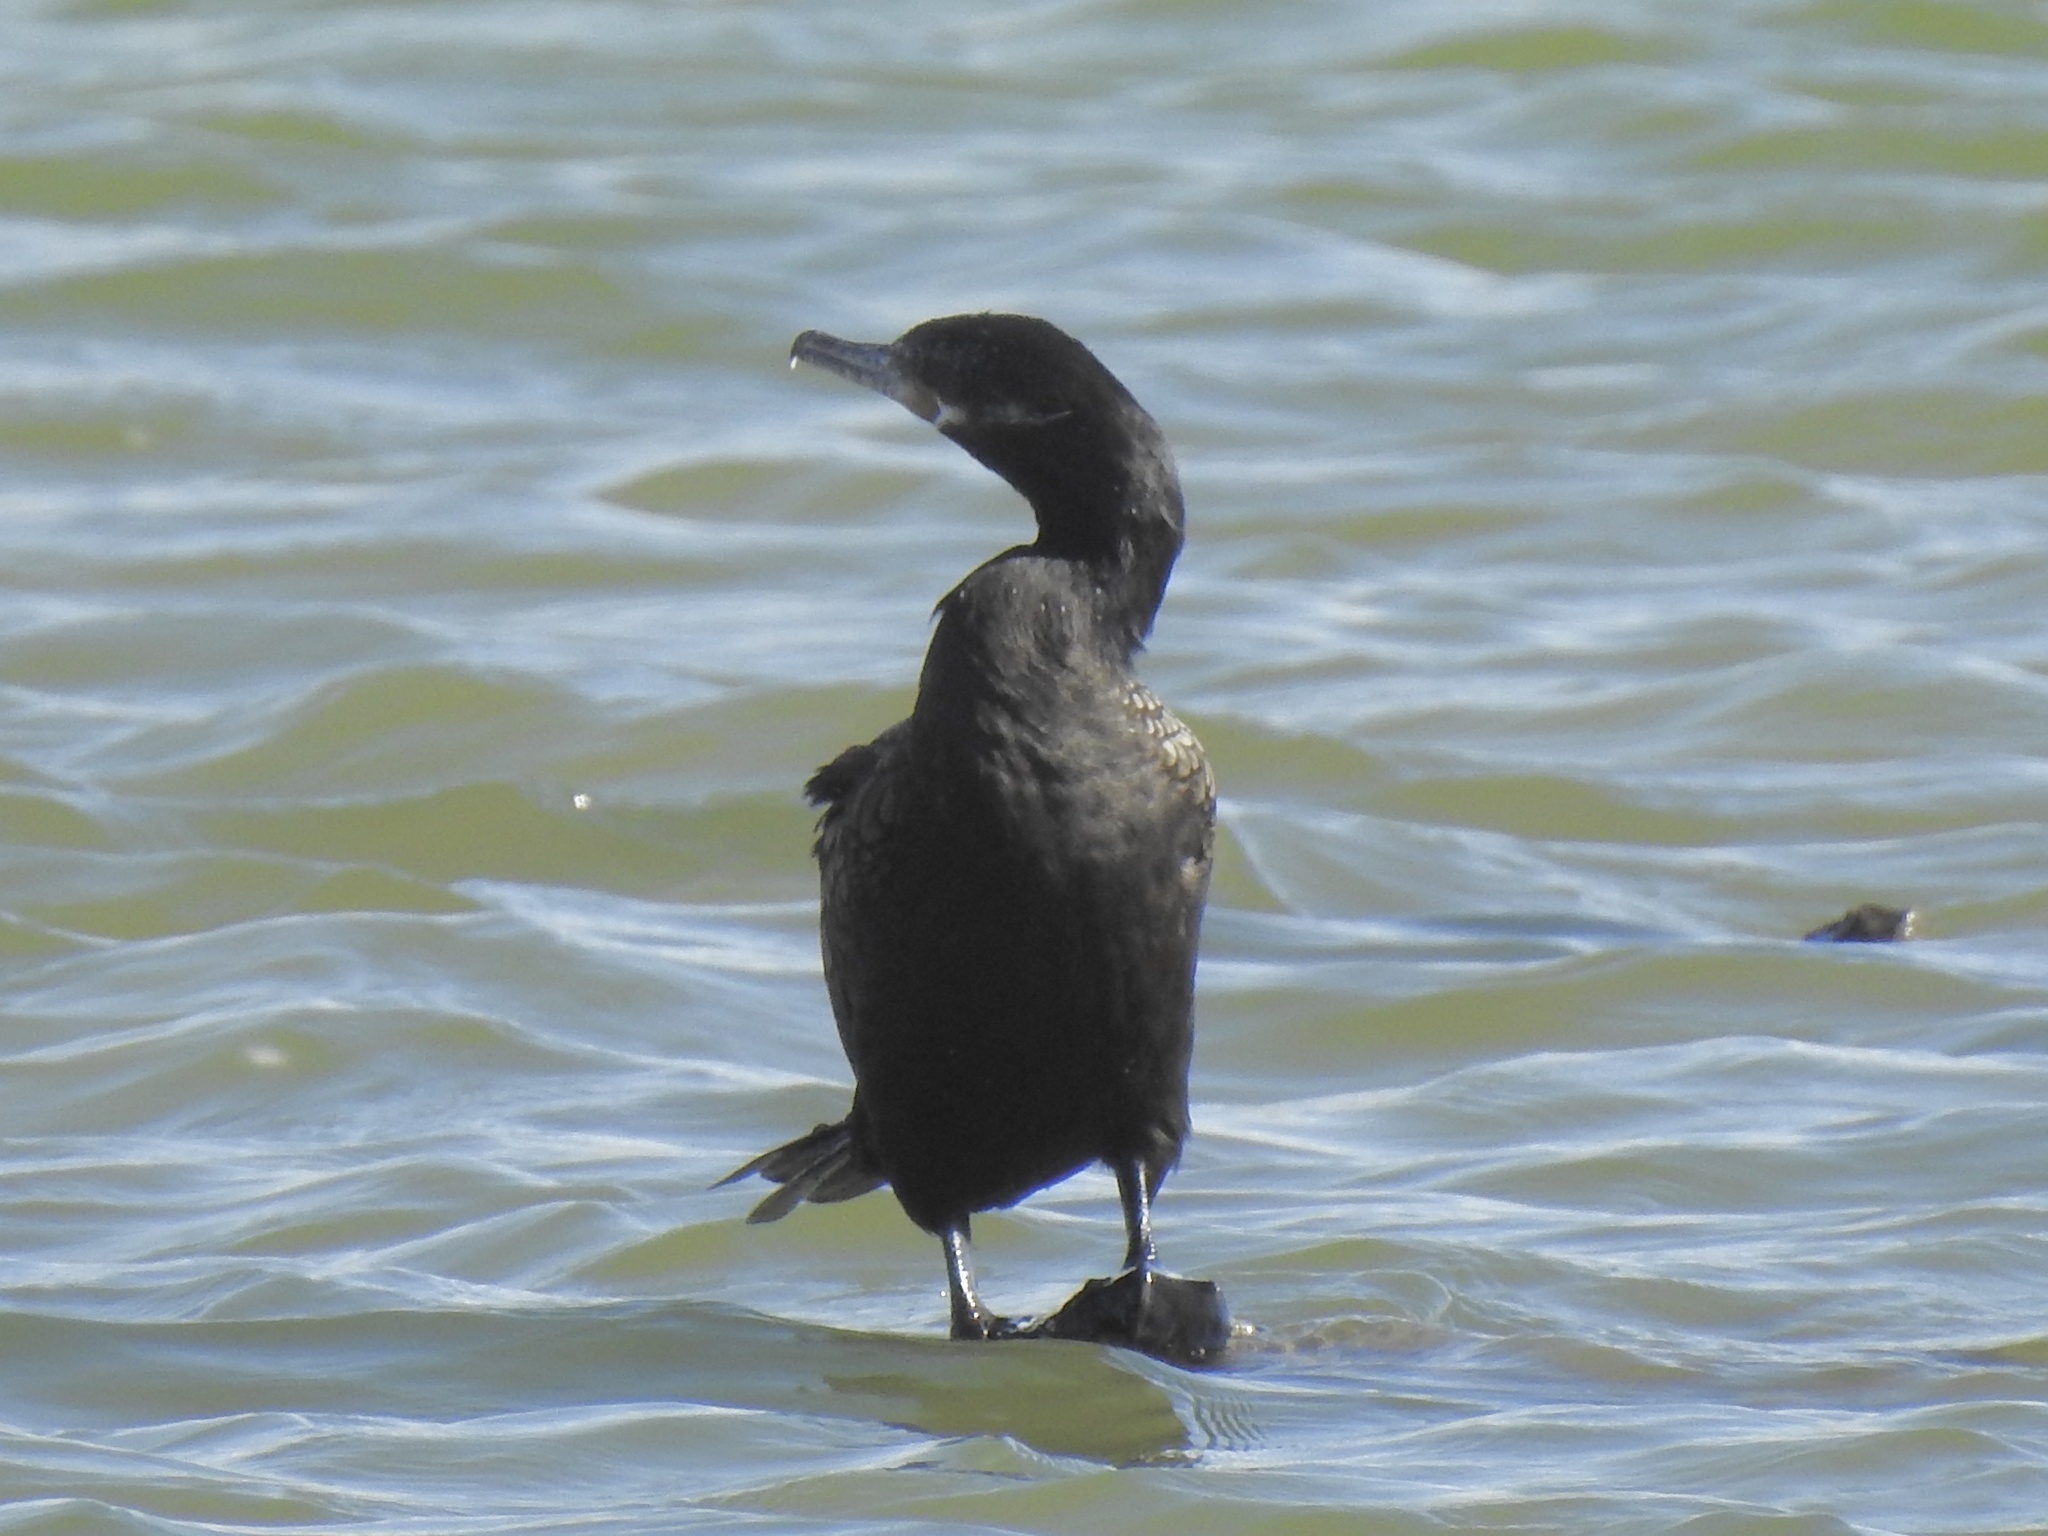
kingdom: Animalia
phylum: Chordata
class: Aves
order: Suliformes
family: Phalacrocoracidae
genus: Phalacrocorax
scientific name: Phalacrocorax brasilianus
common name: Neotropic cormorant
